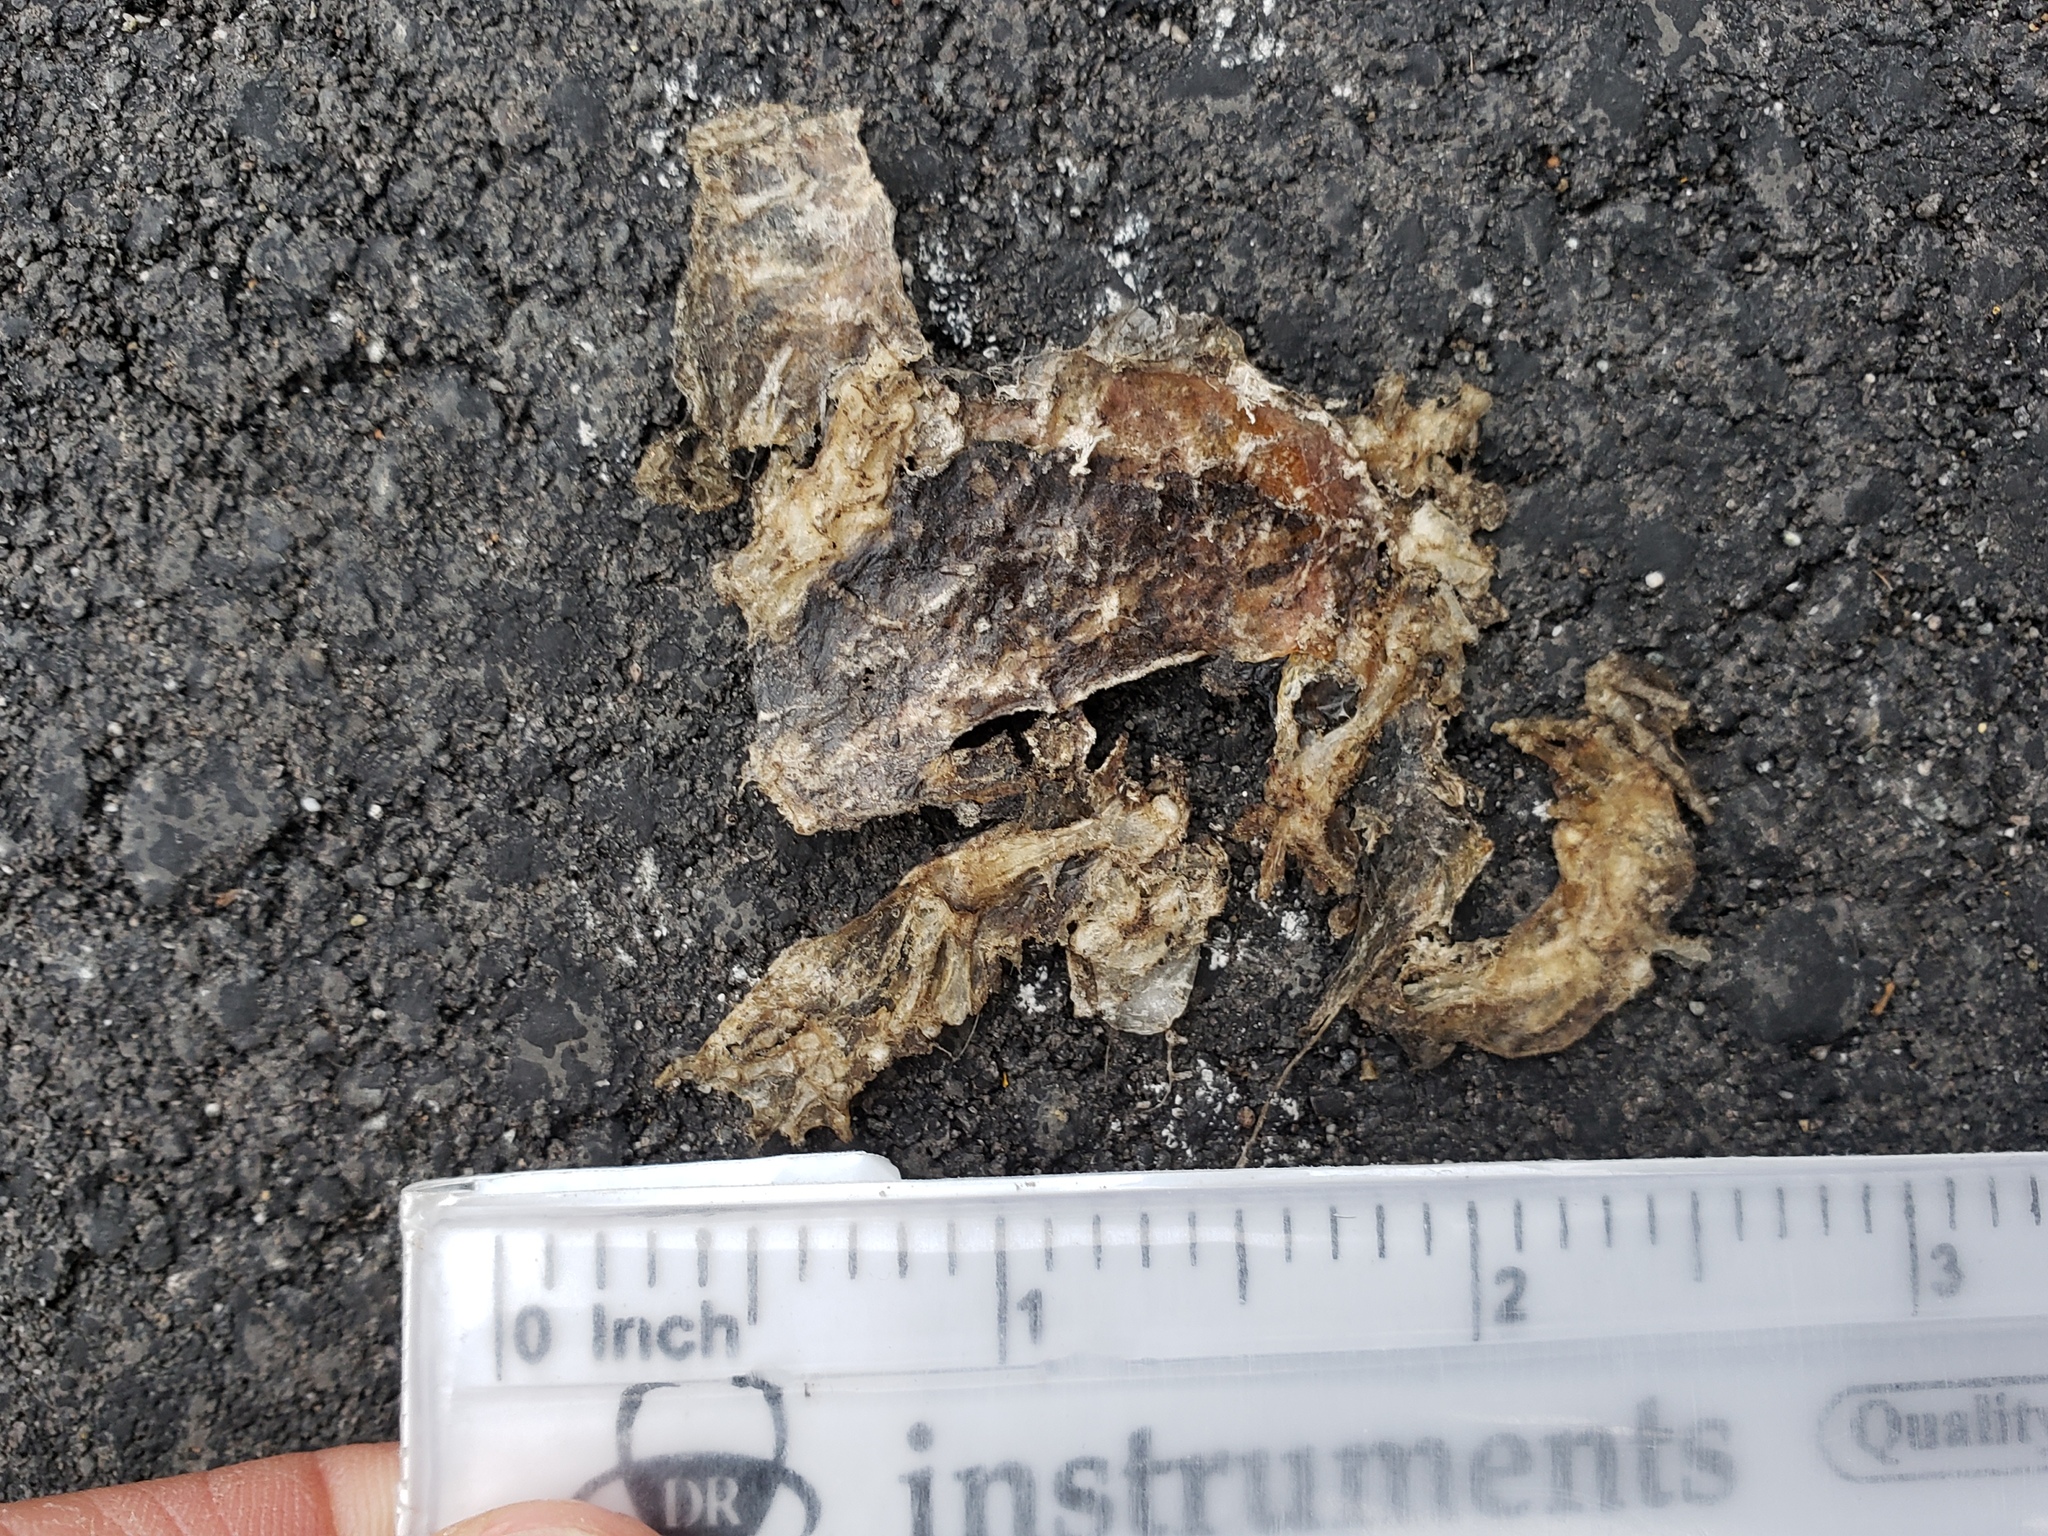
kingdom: Animalia
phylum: Chordata
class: Amphibia
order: Caudata
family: Salamandridae
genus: Taricha
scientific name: Taricha
